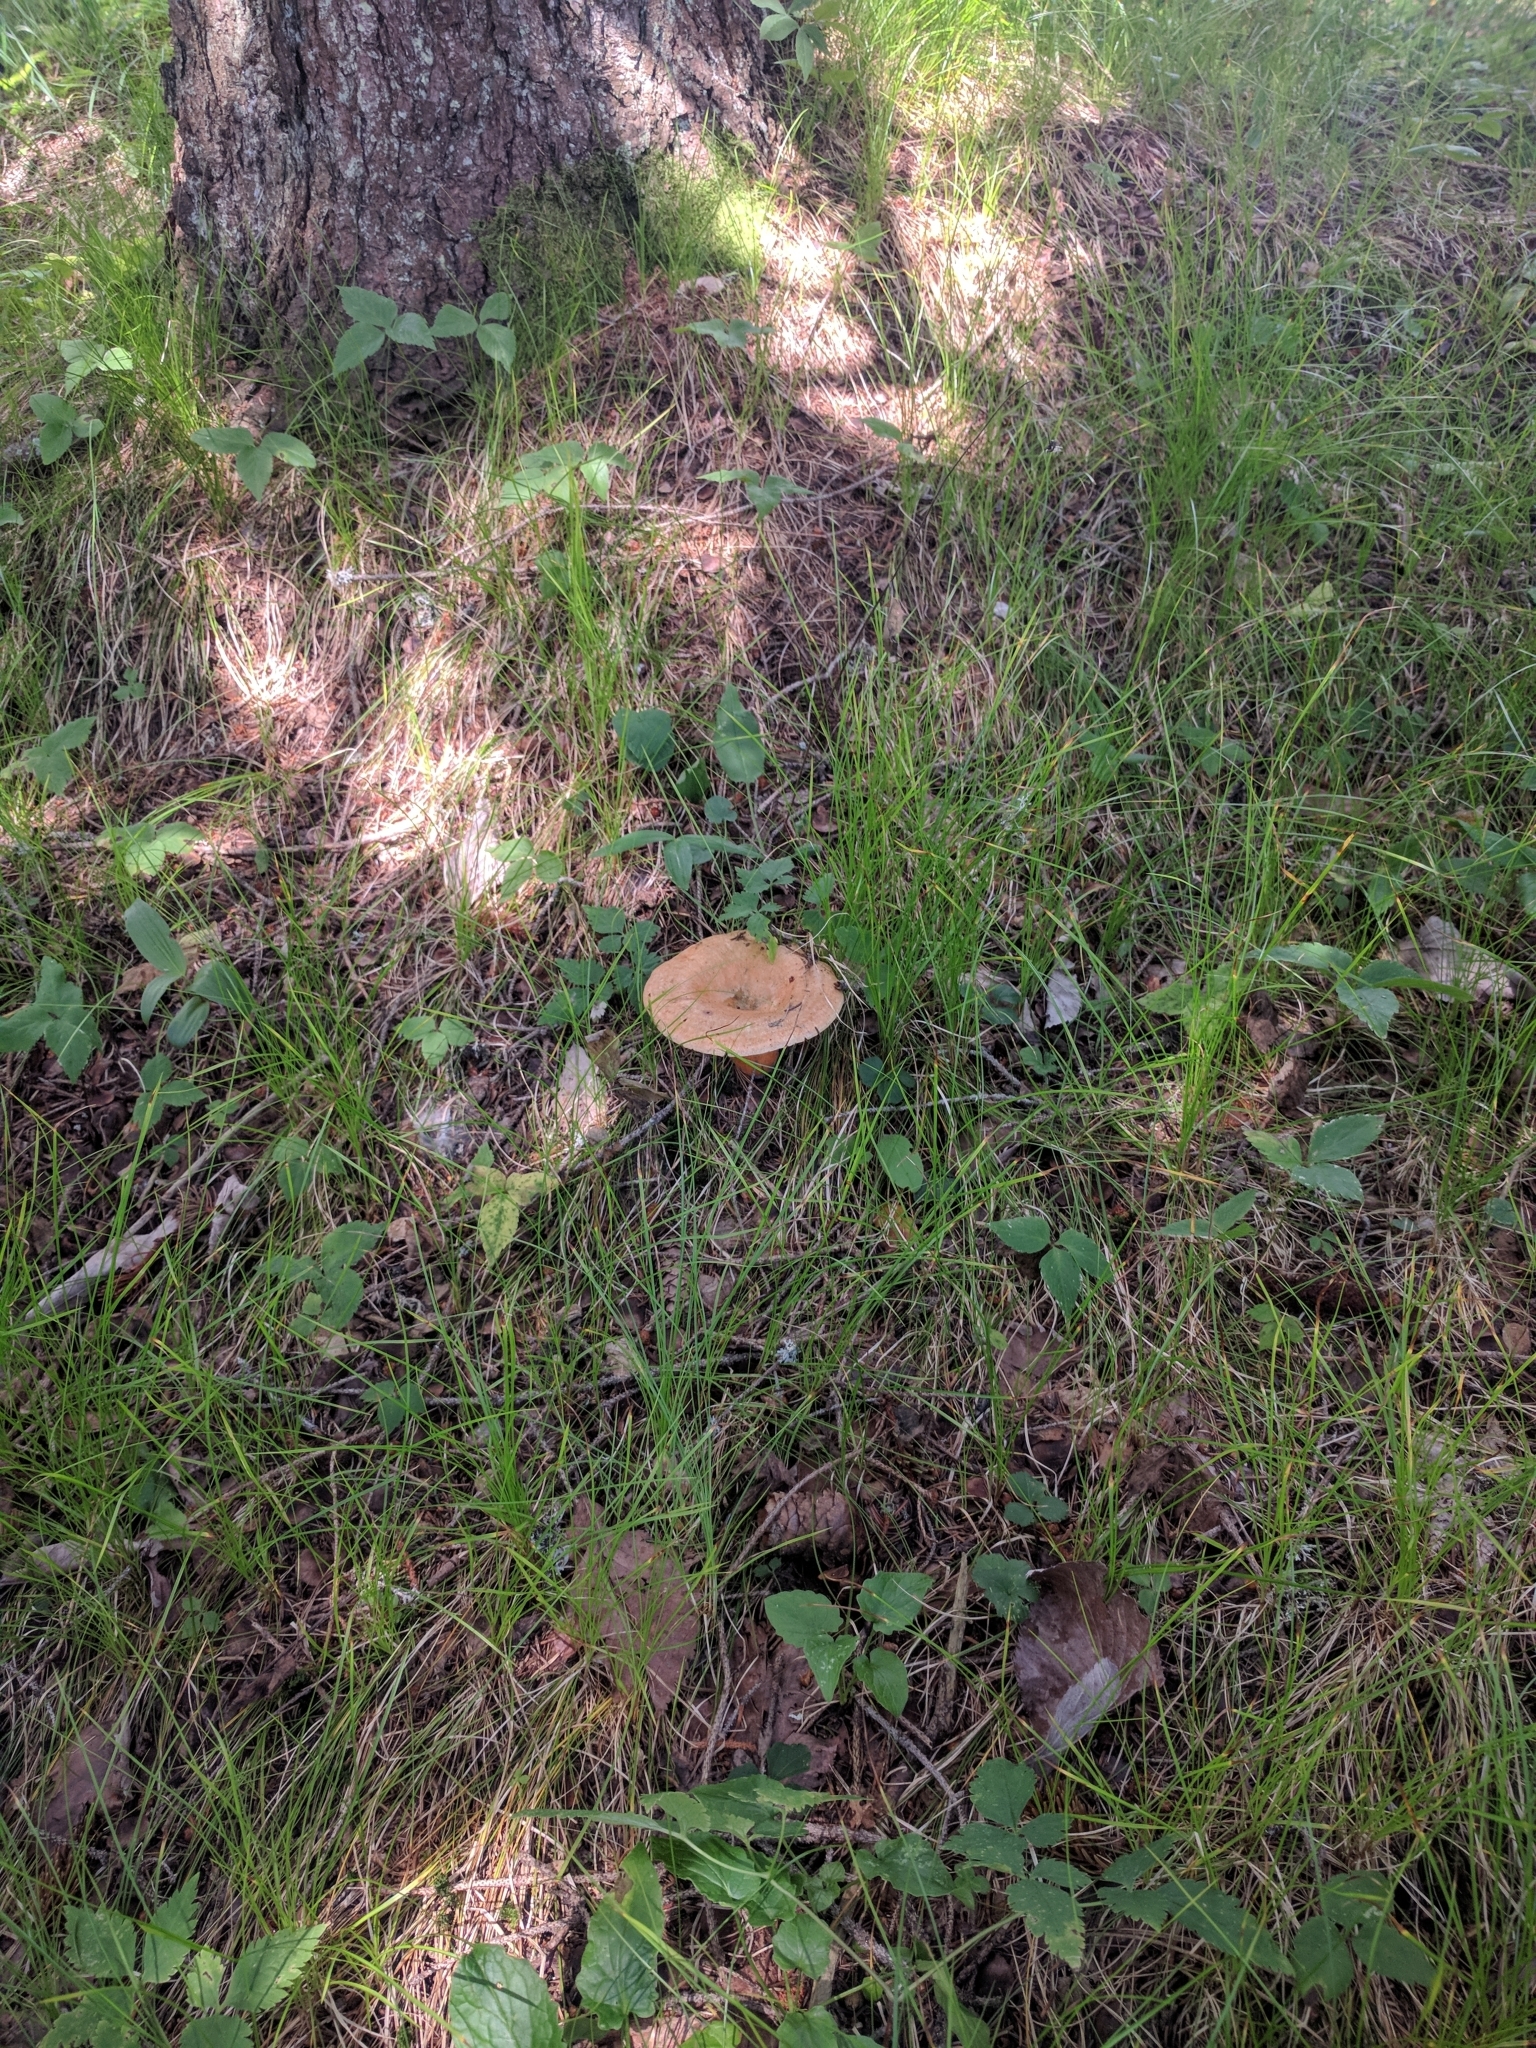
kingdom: Fungi
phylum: Basidiomycota
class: Agaricomycetes
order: Russulales
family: Russulaceae
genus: Lactarius
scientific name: Lactarius deterrimus
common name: False saffron milkcap
